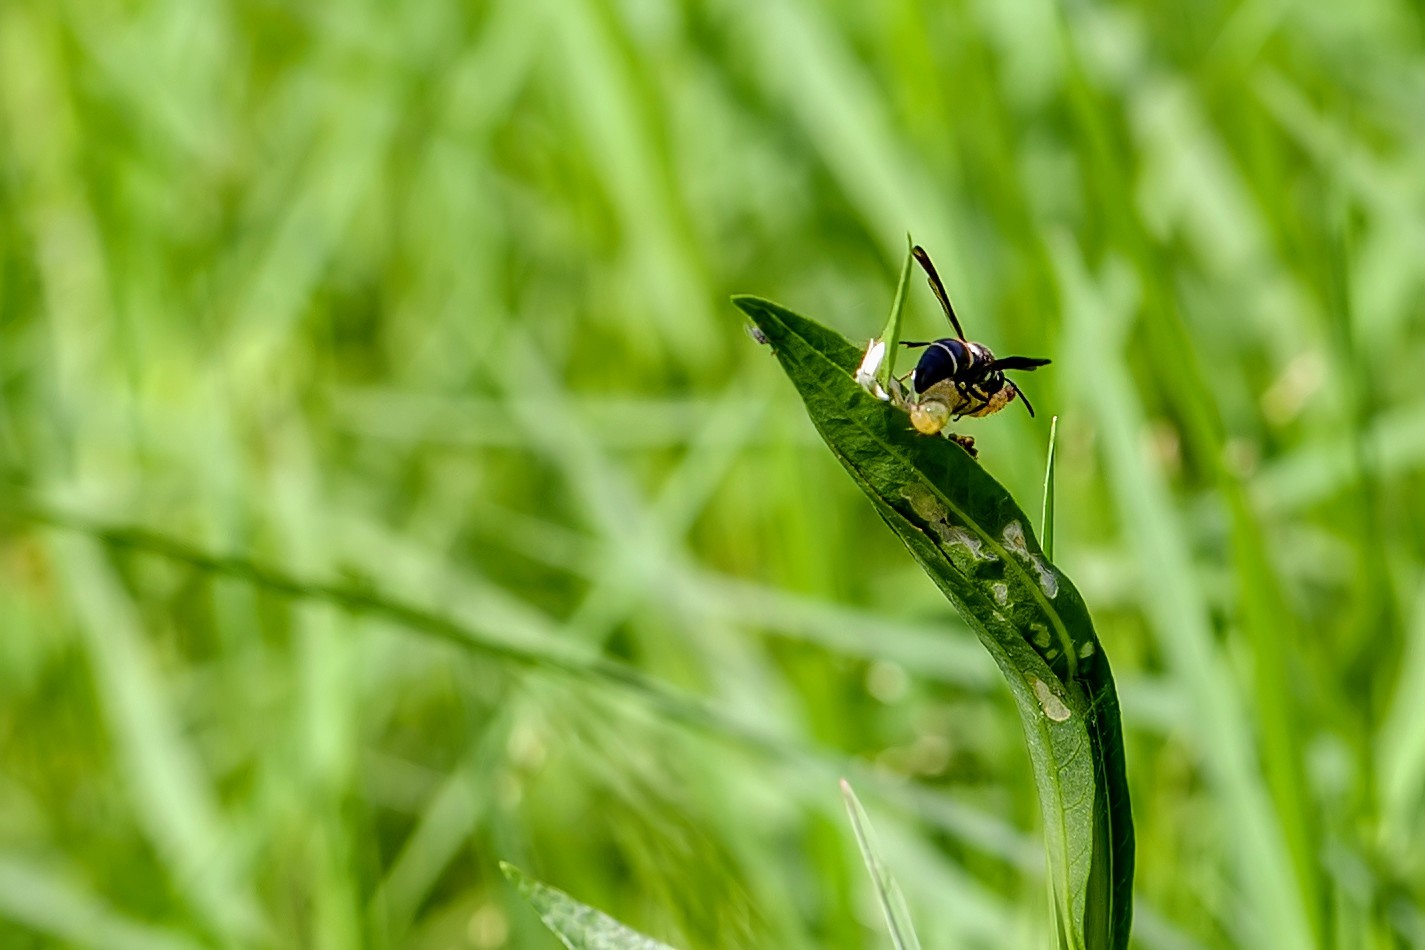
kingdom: Animalia
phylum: Arthropoda
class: Insecta
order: Hymenoptera
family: Eumenidae
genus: Euodynerus
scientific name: Euodynerus megaera
